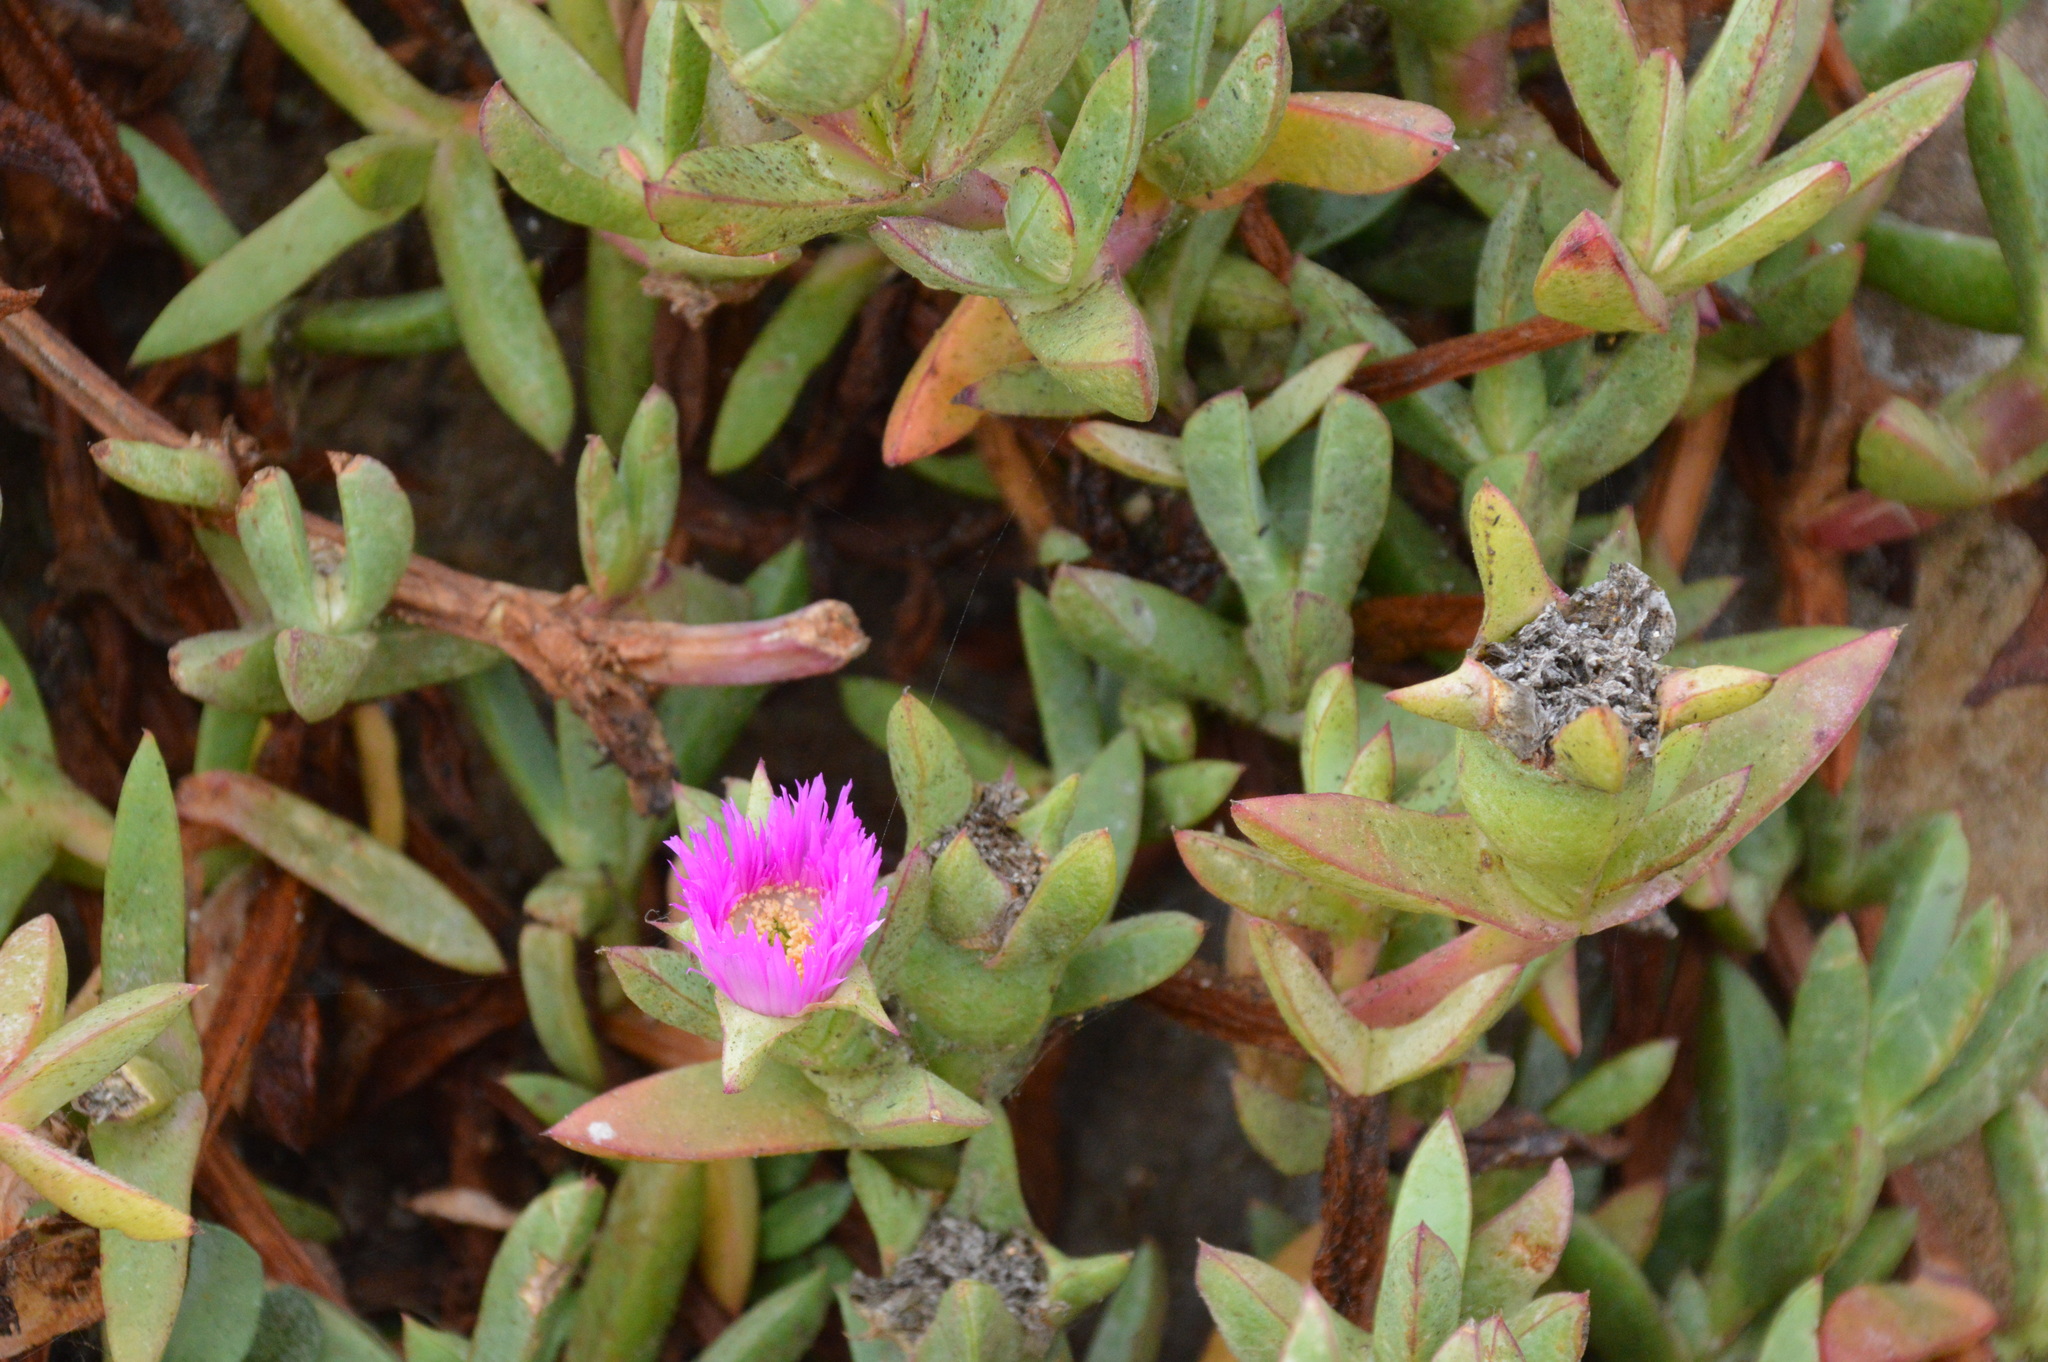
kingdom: Plantae
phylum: Tracheophyta
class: Magnoliopsida
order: Caryophyllales
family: Aizoaceae
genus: Carpobrotus
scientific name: Carpobrotus chilensis
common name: Sea fig
